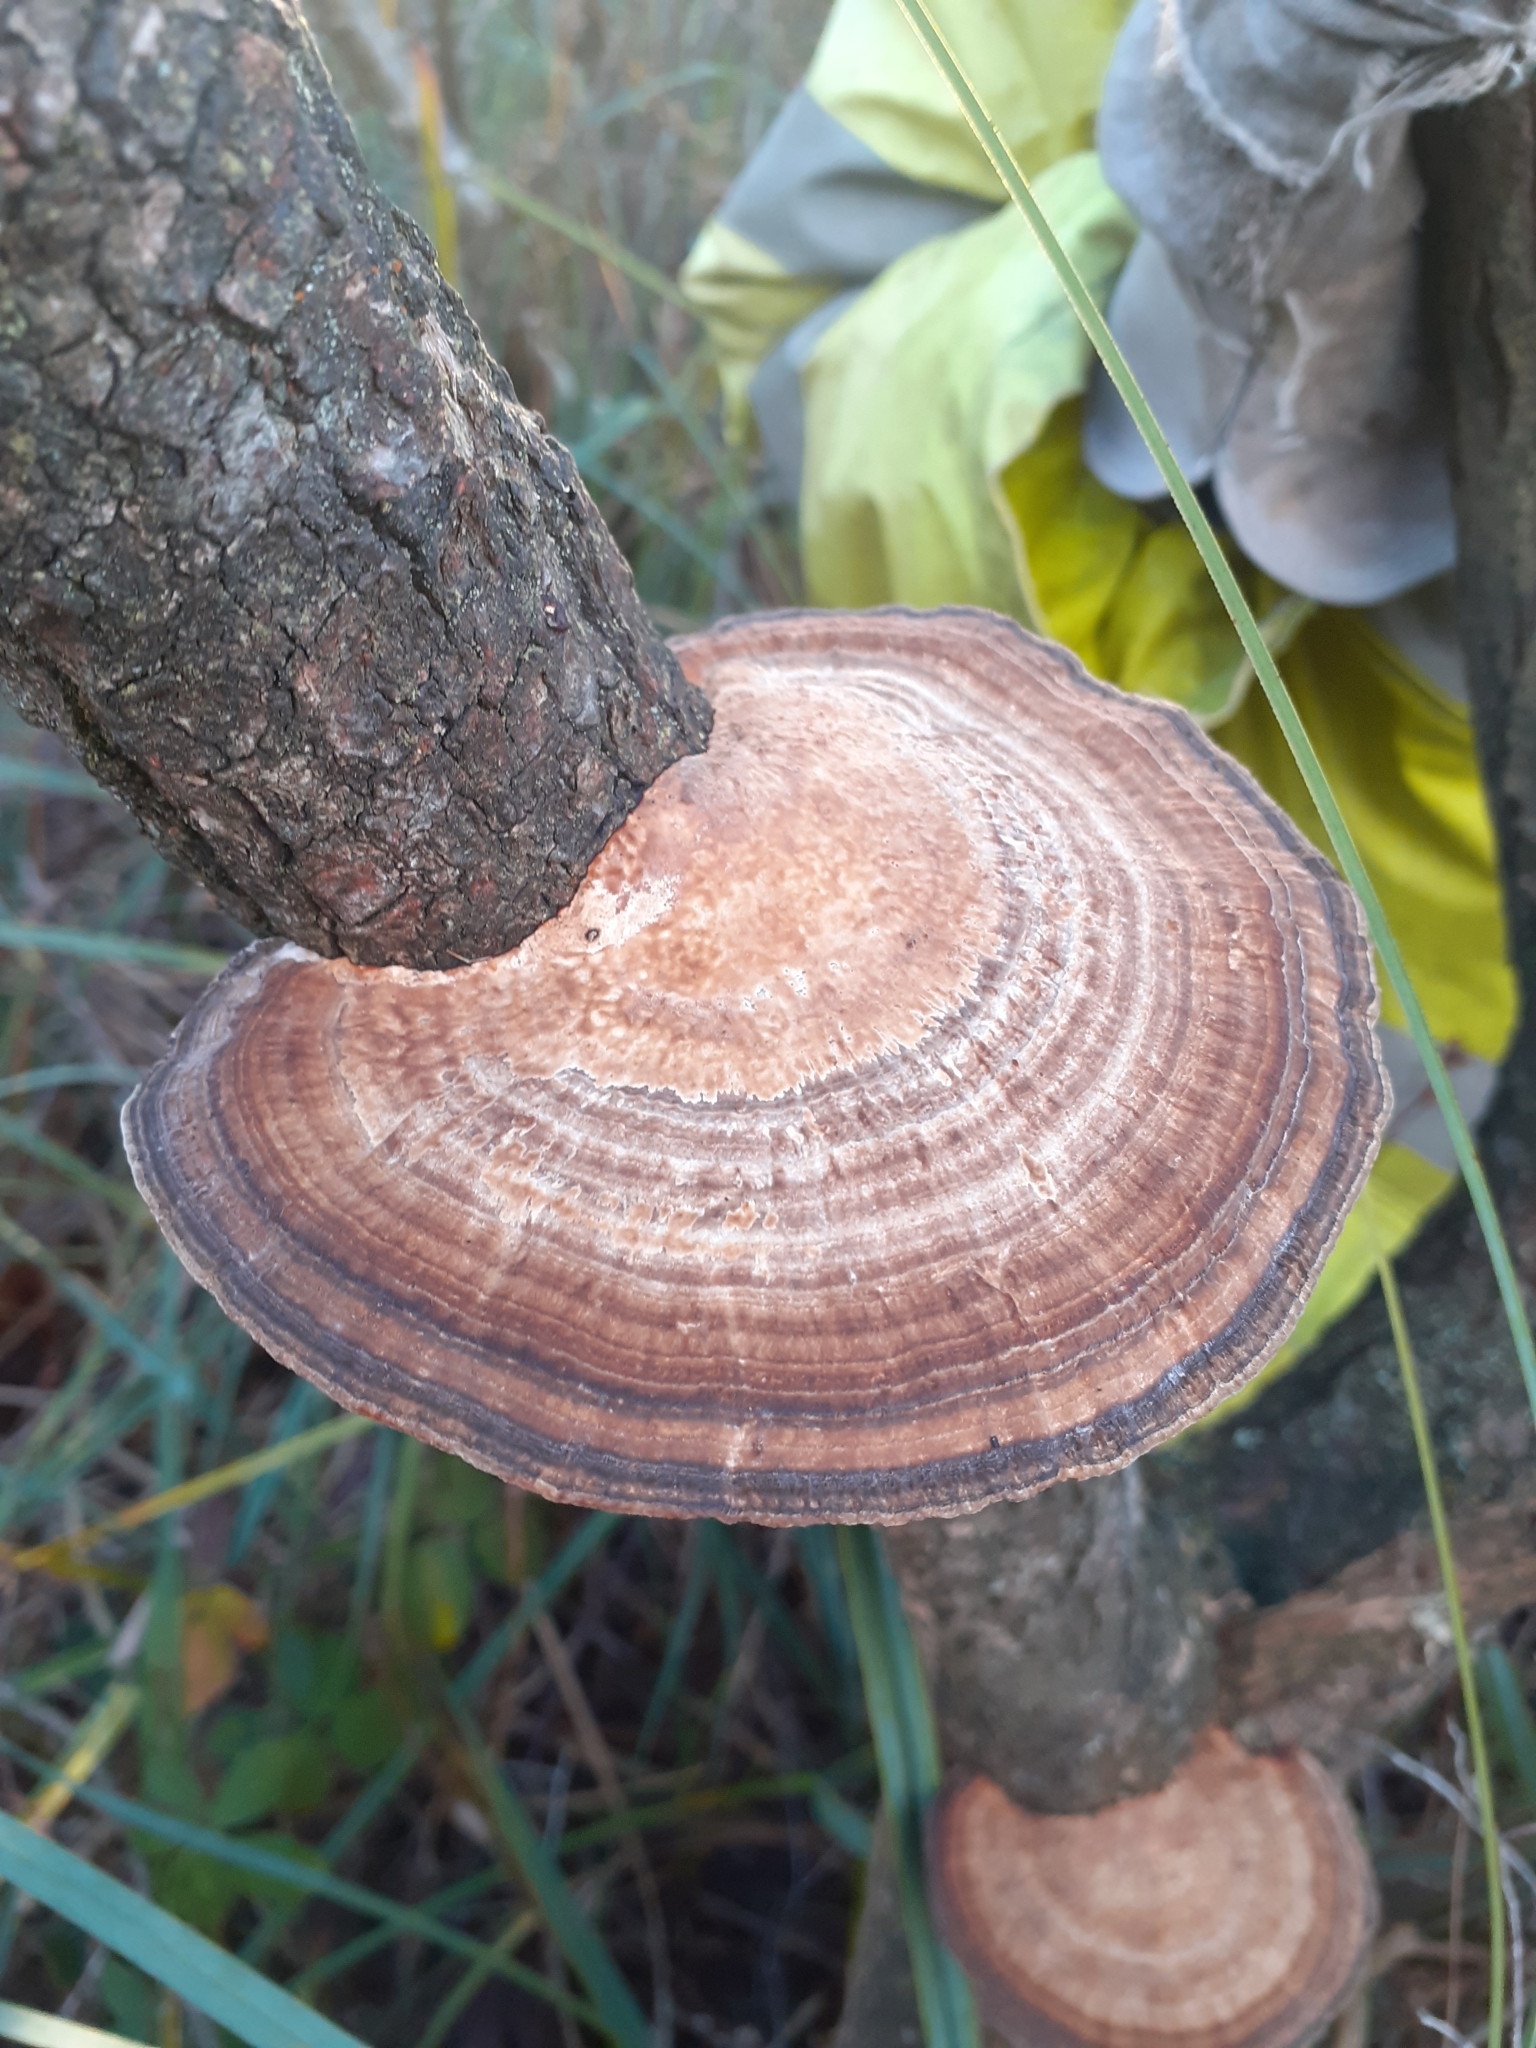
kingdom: Fungi
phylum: Basidiomycota
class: Agaricomycetes
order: Polyporales
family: Polyporaceae
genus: Daedaleopsis
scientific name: Daedaleopsis confragosa
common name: Blushing bracket
